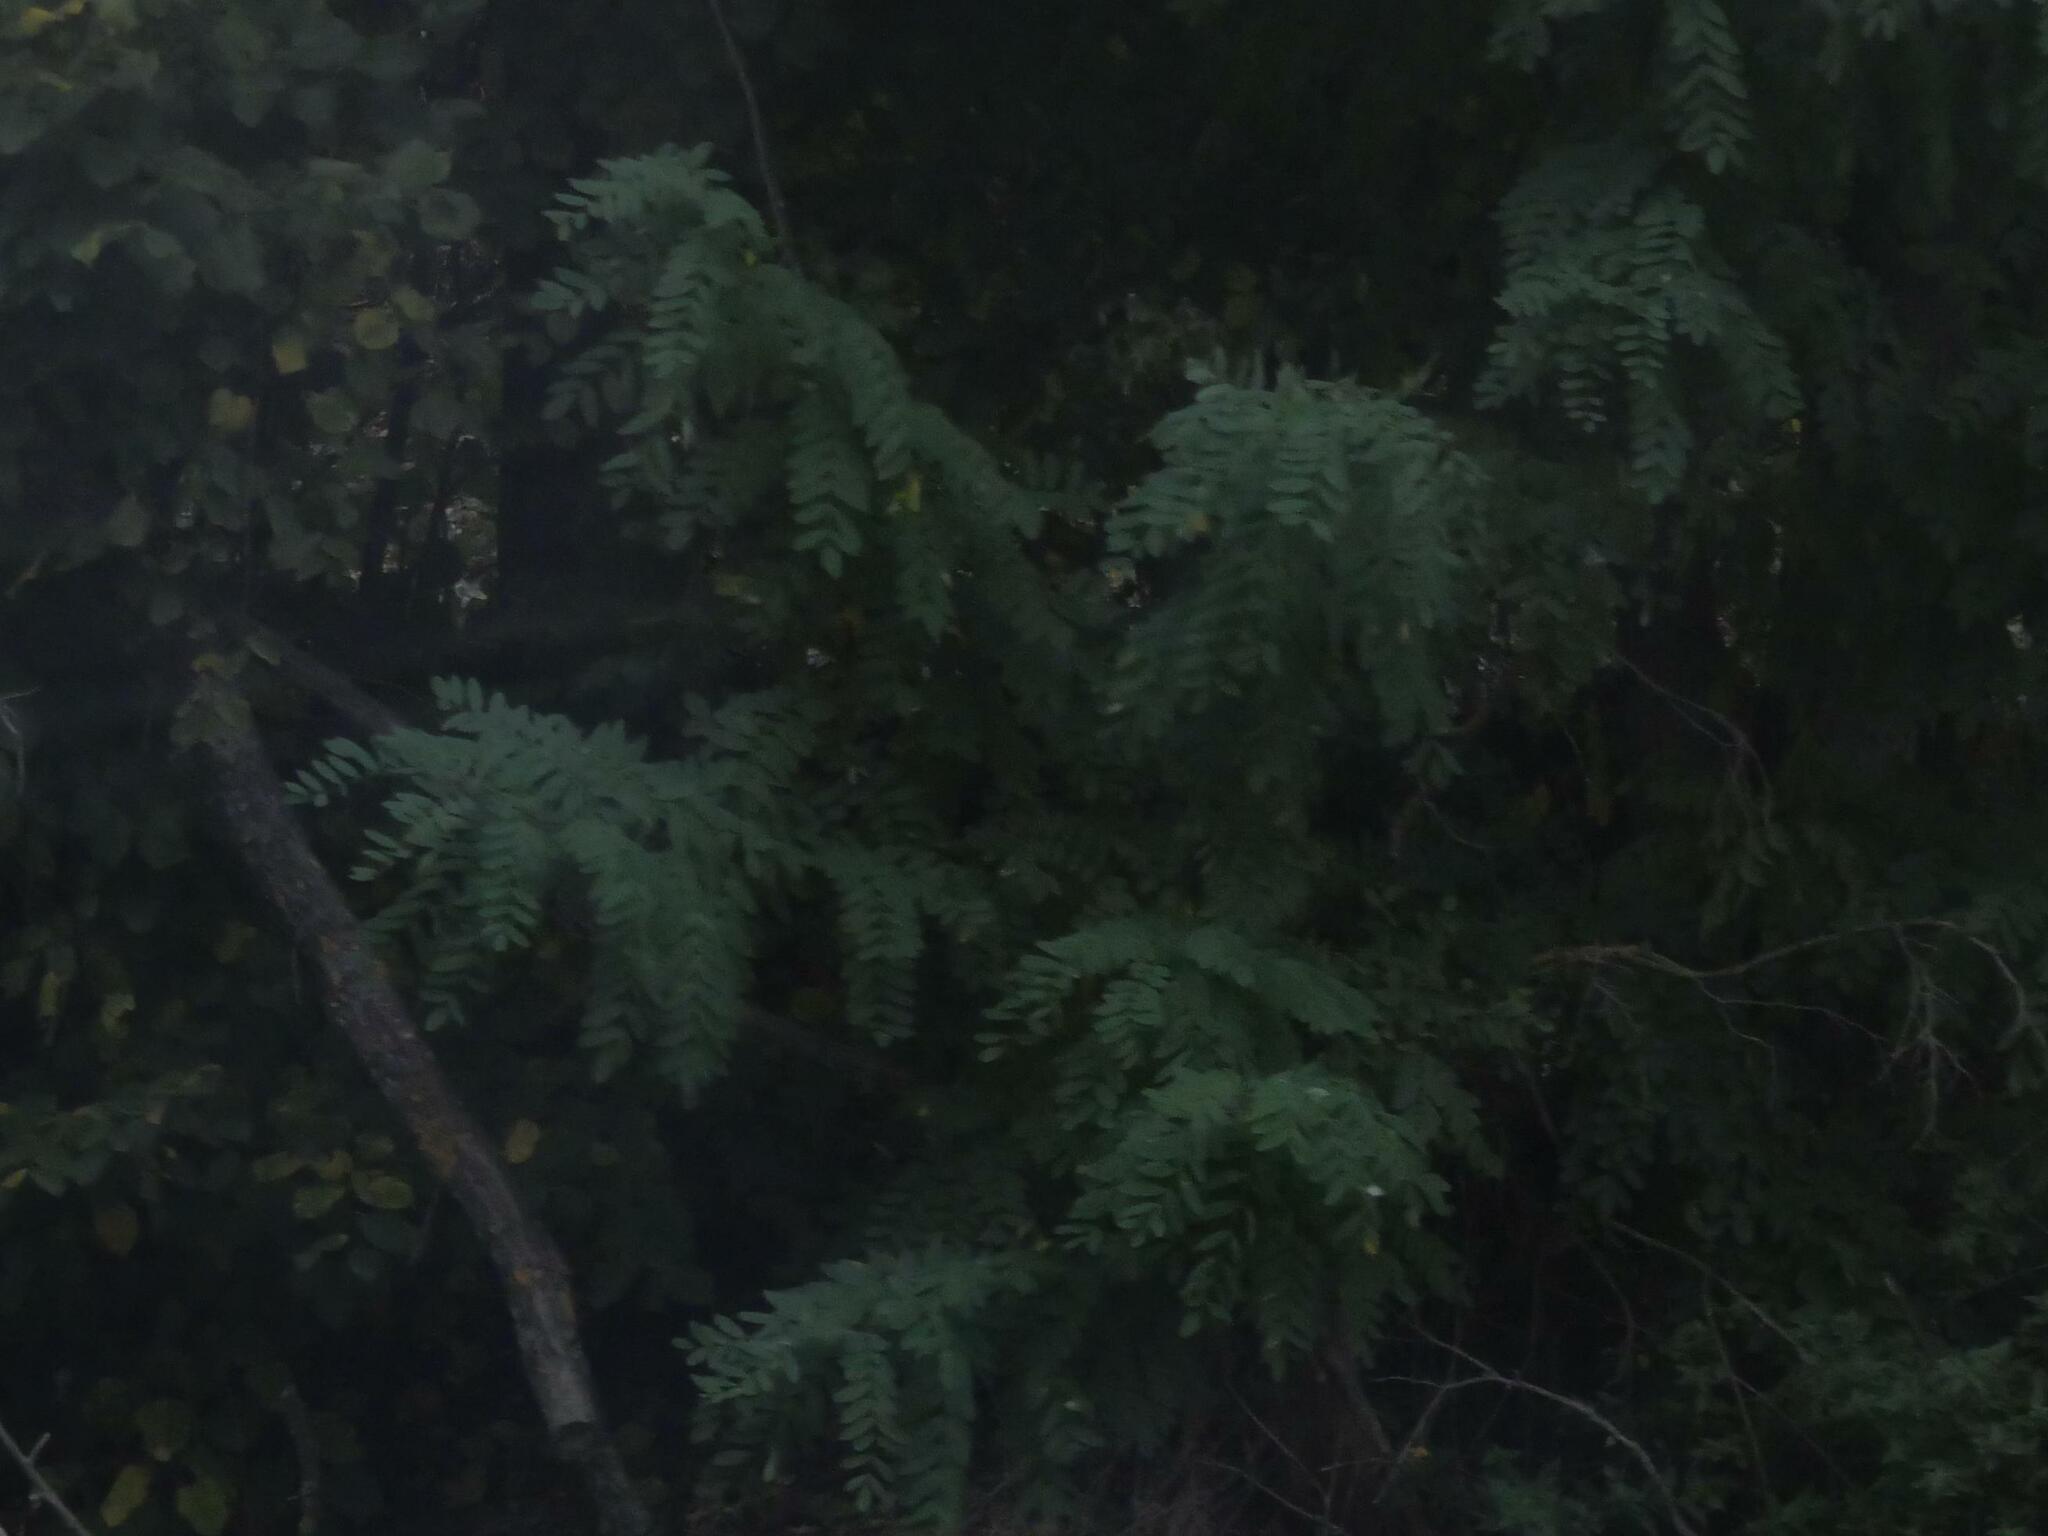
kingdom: Plantae
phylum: Tracheophyta
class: Magnoliopsida
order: Fabales
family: Fabaceae
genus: Robinia
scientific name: Robinia pseudoacacia
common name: Black locust
